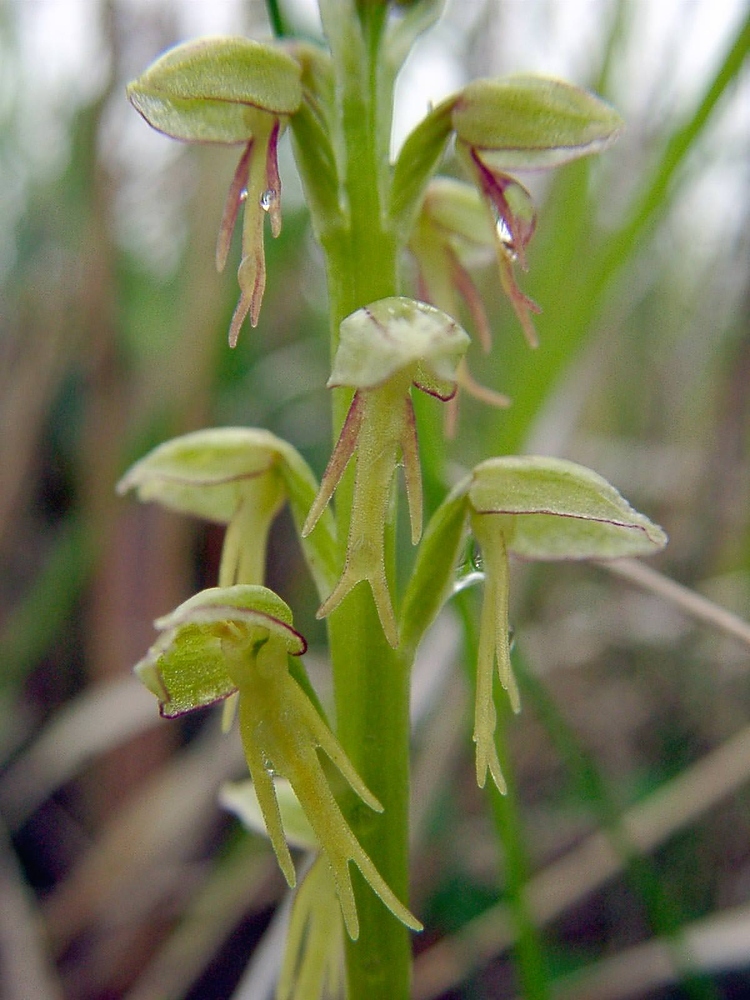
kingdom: Plantae
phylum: Tracheophyta
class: Liliopsida
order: Asparagales
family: Orchidaceae
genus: Orchis
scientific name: Orchis anthropophora
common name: Man orchid
